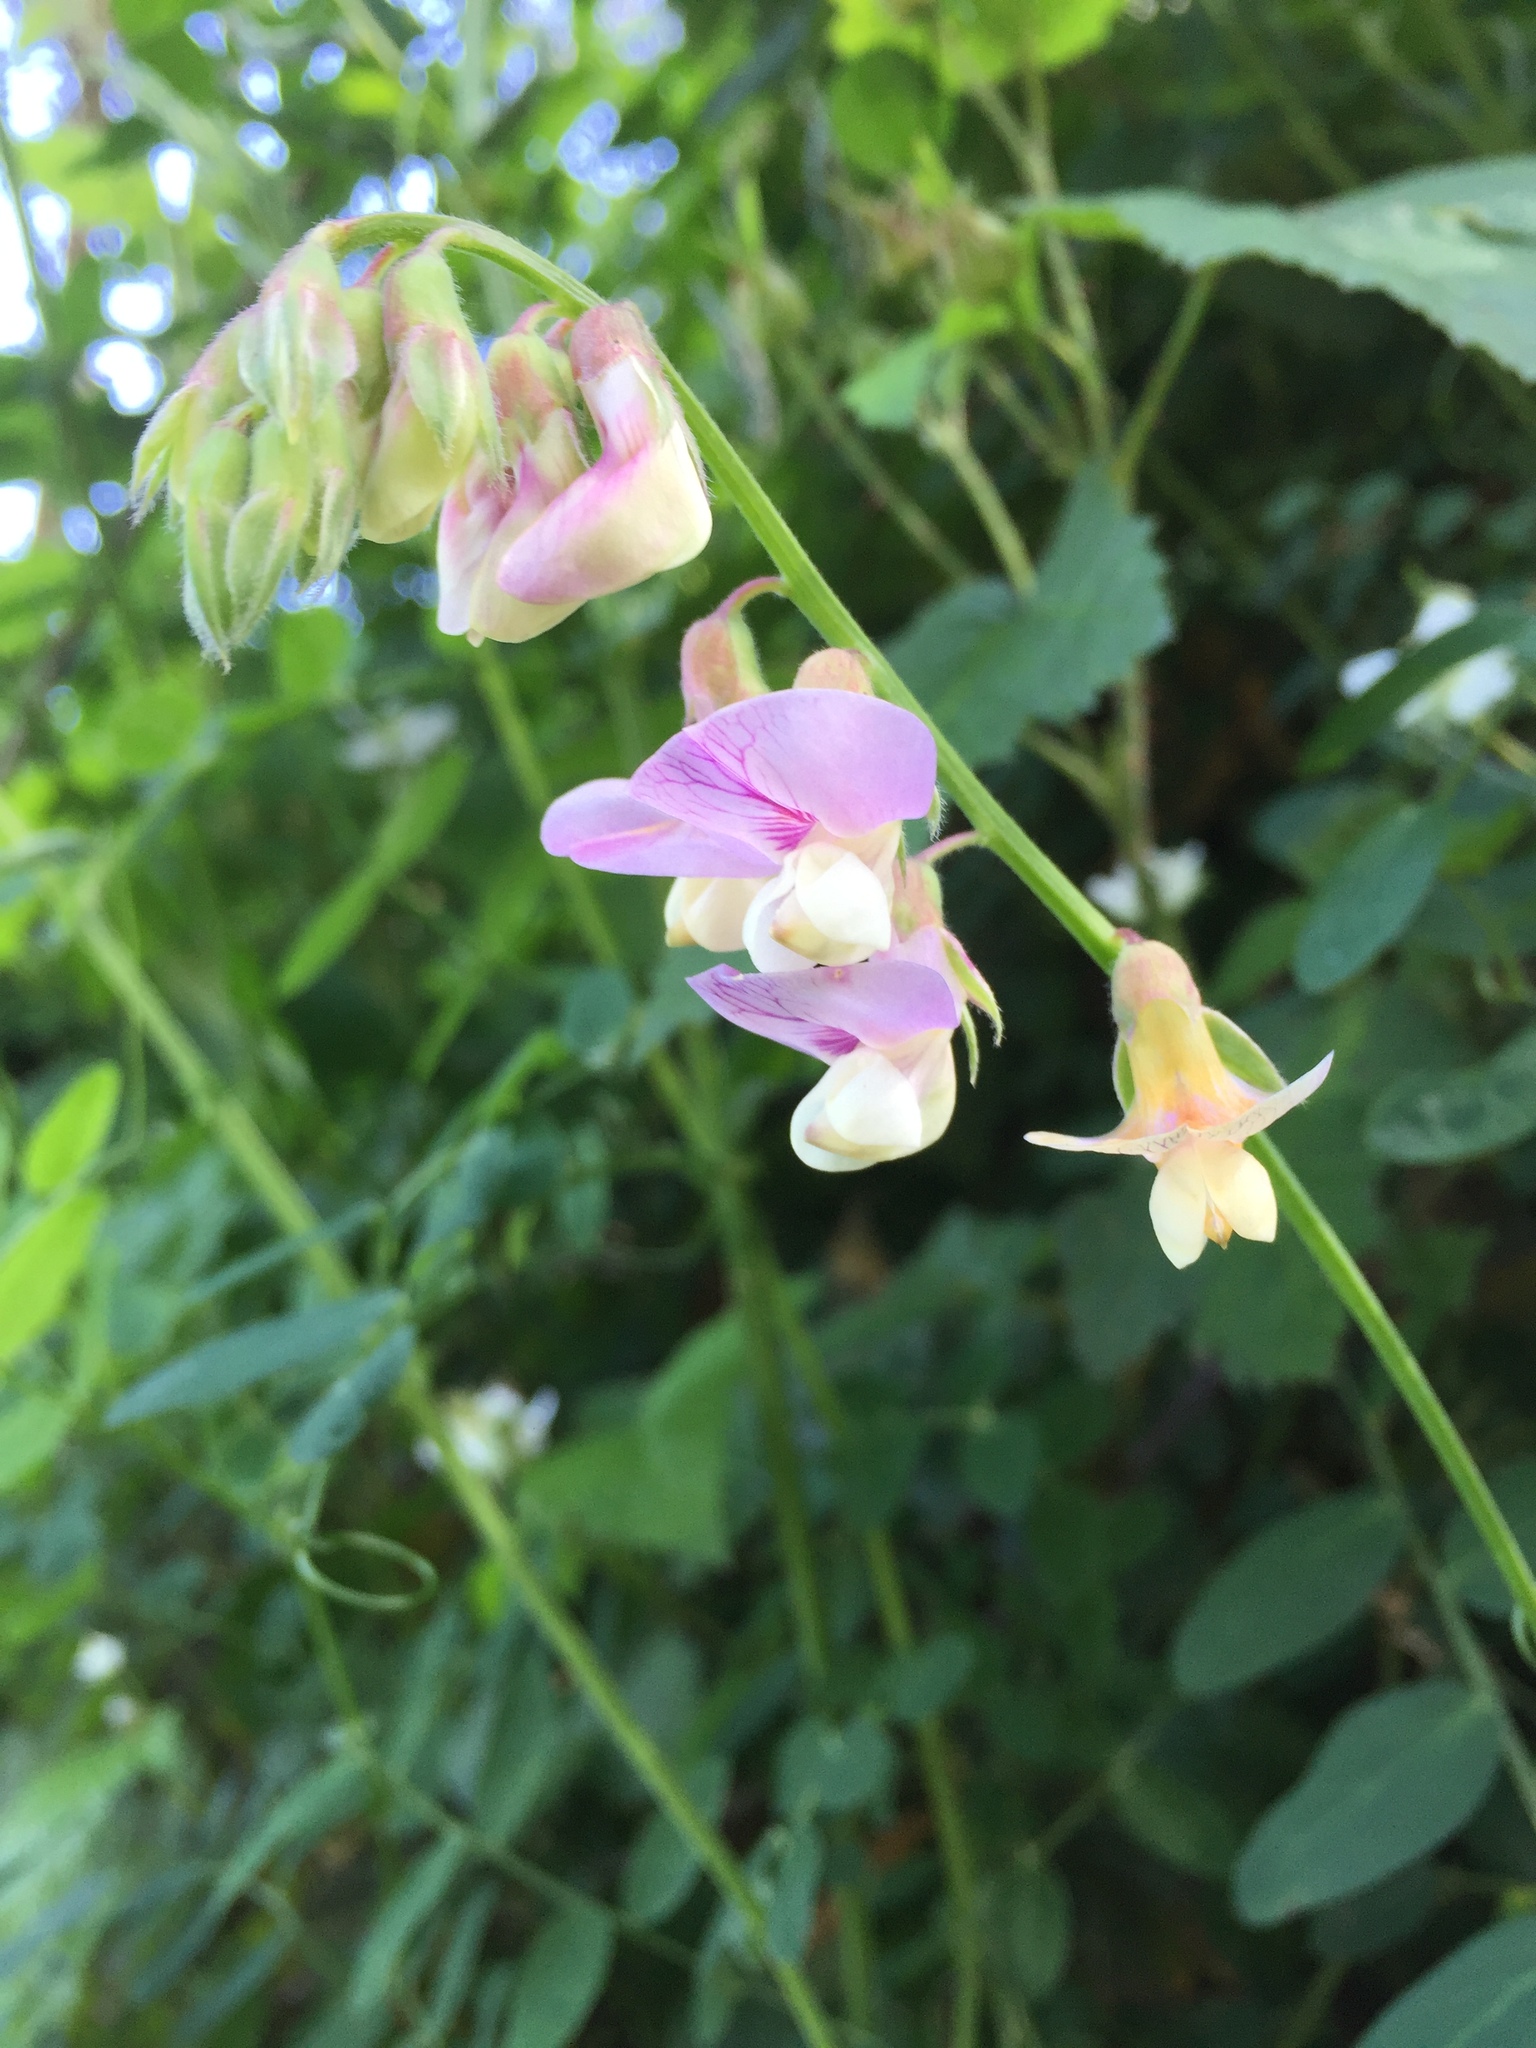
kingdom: Plantae
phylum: Tracheophyta
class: Magnoliopsida
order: Fabales
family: Fabaceae
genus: Lathyrus
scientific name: Lathyrus vestitus
